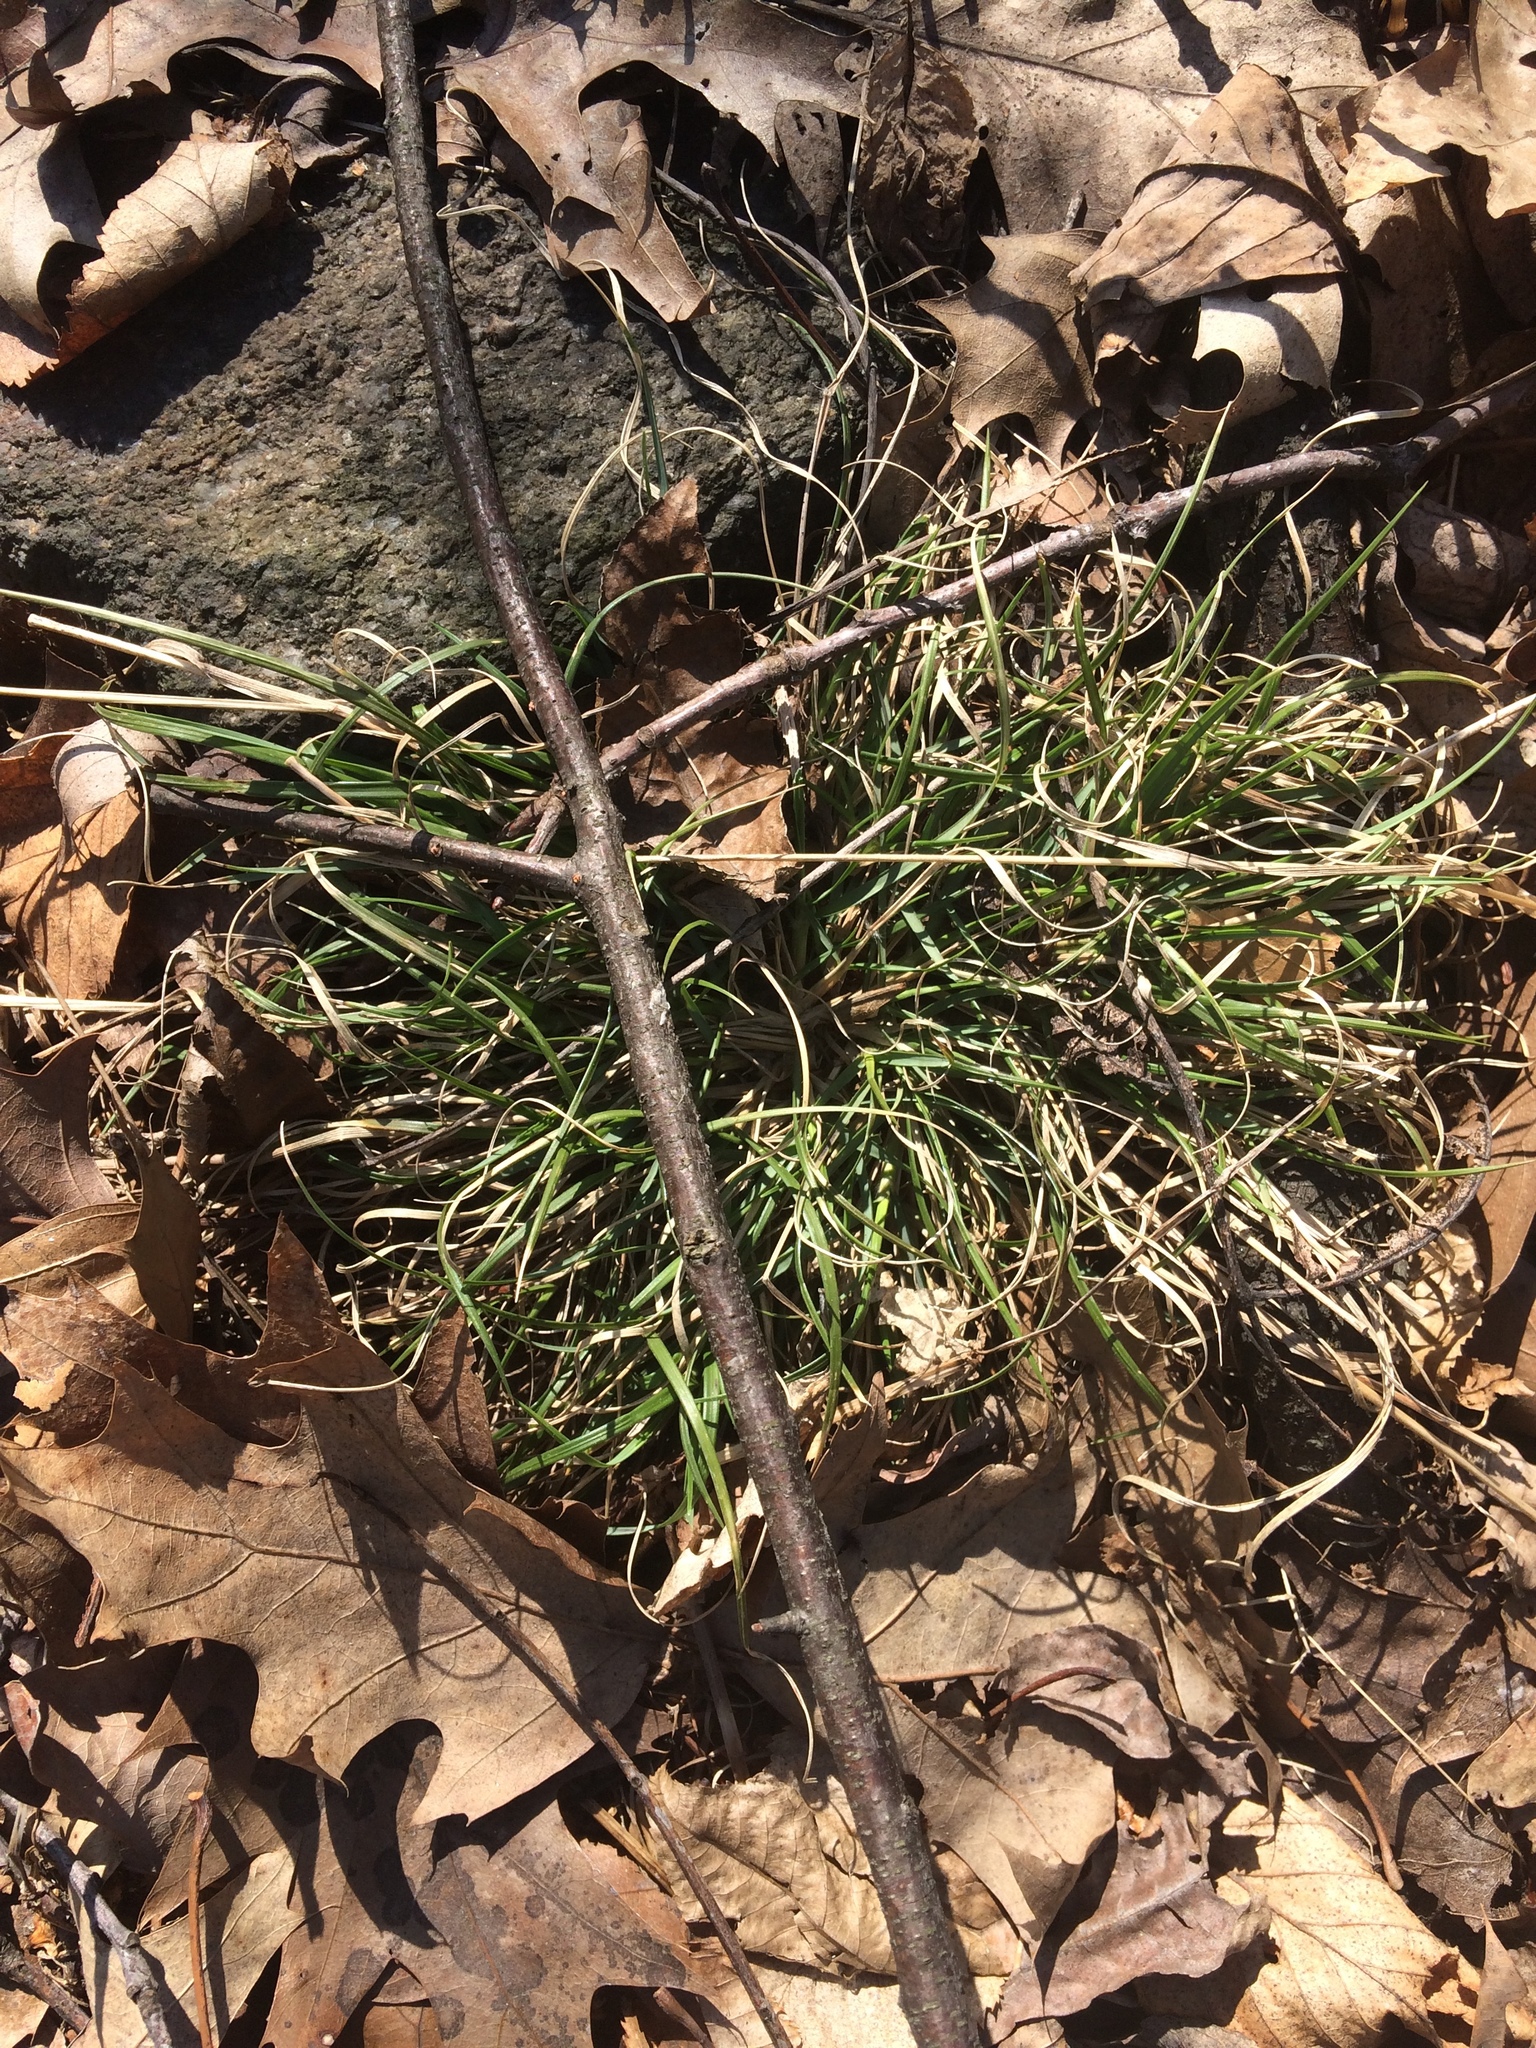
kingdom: Plantae
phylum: Tracheophyta
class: Liliopsida
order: Poales
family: Poaceae
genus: Danthonia
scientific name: Danthonia spicata
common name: Common wild oatgrass
